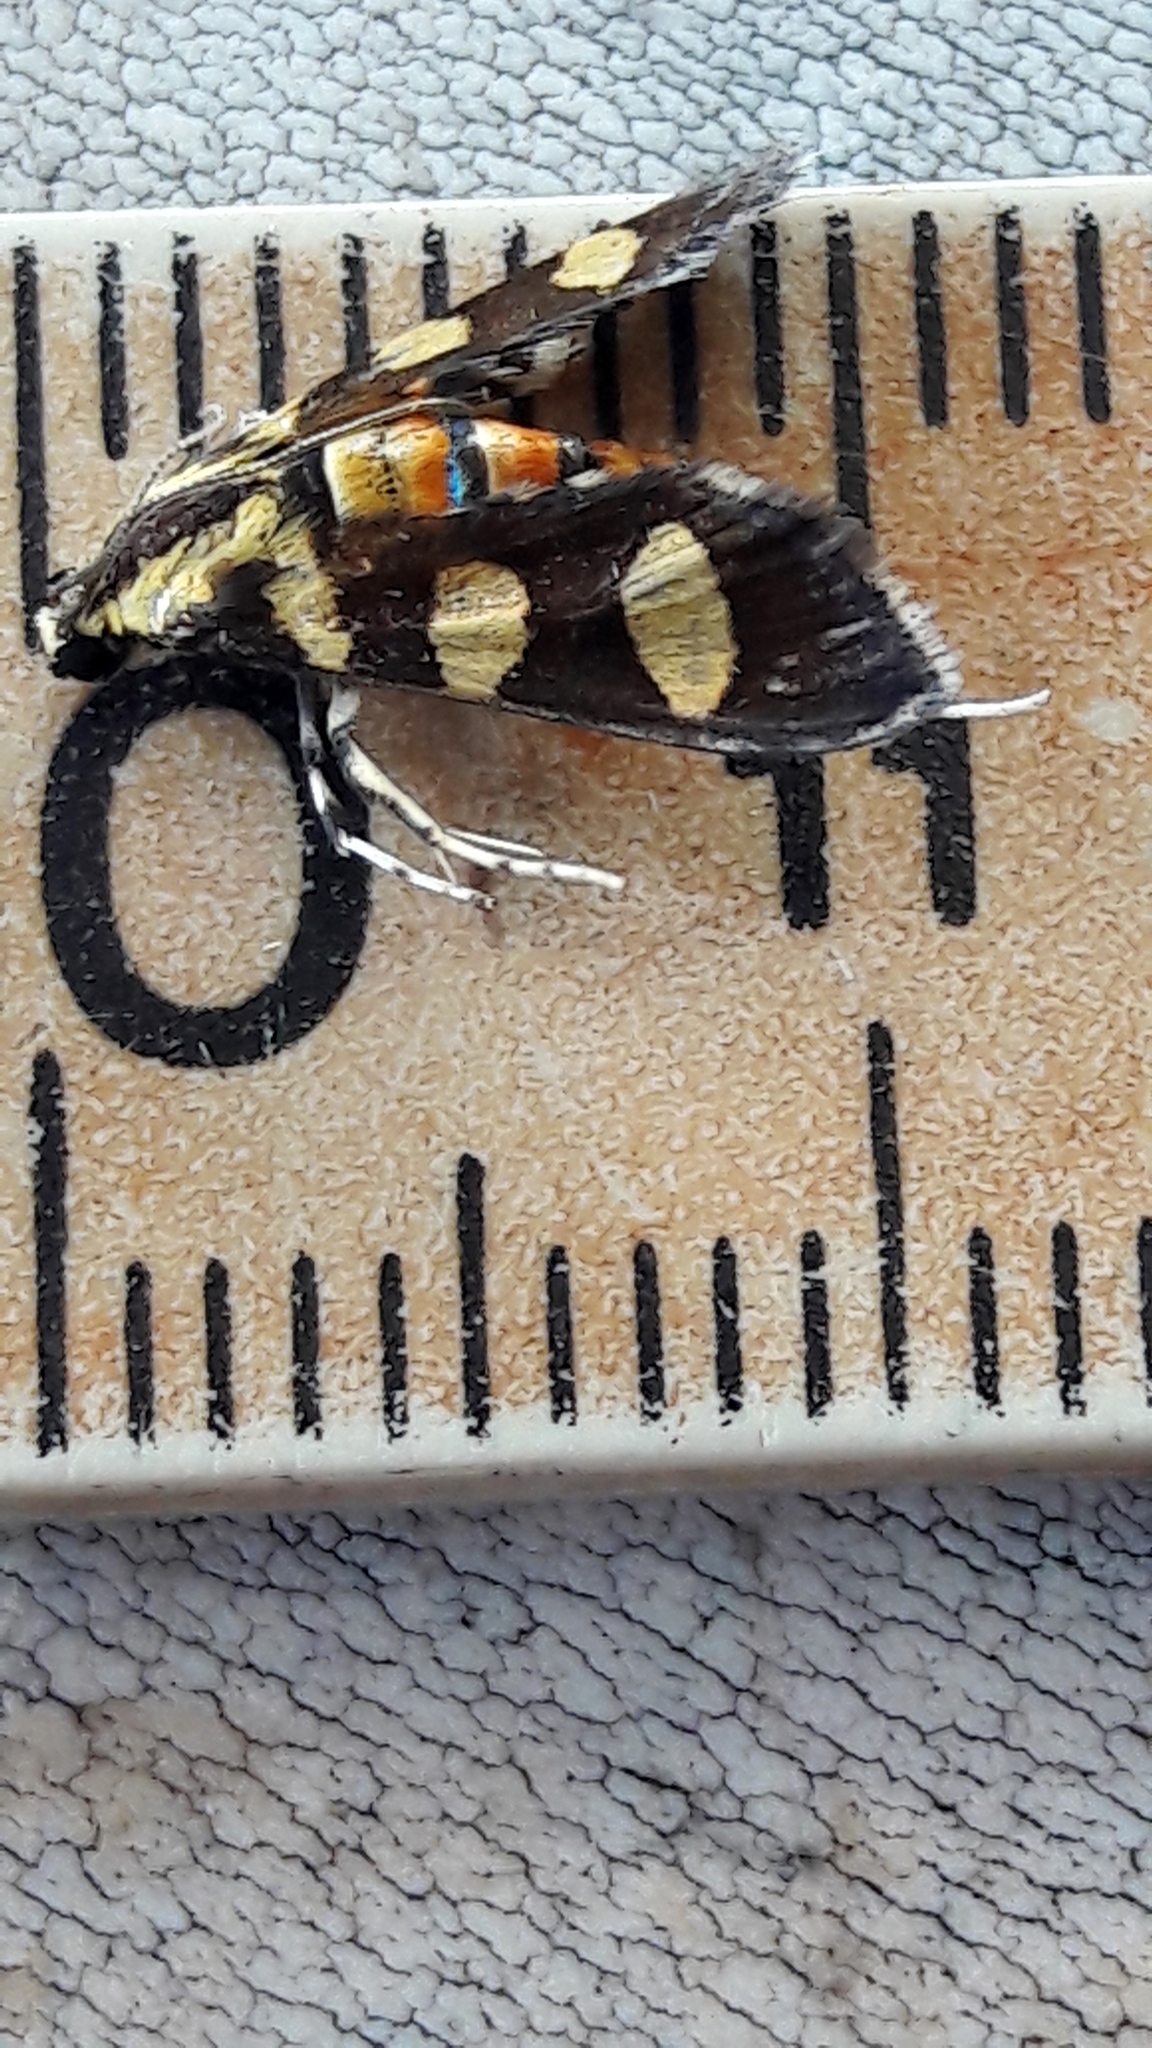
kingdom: Animalia
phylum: Arthropoda
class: Insecta
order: Lepidoptera
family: Crambidae
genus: Syngamia
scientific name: Syngamia florella
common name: Orange-spotted flower moth
